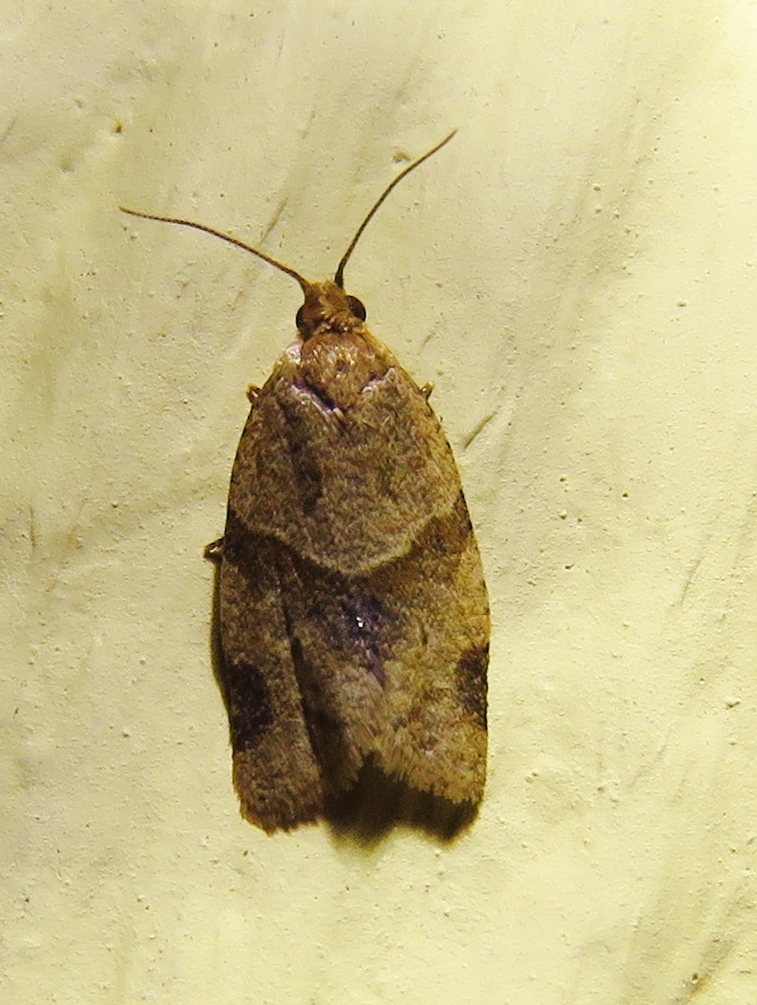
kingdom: Animalia
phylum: Arthropoda
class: Insecta
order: Lepidoptera
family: Tortricidae
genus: Clepsis
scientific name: Clepsis peritana
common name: Garden tortrix
